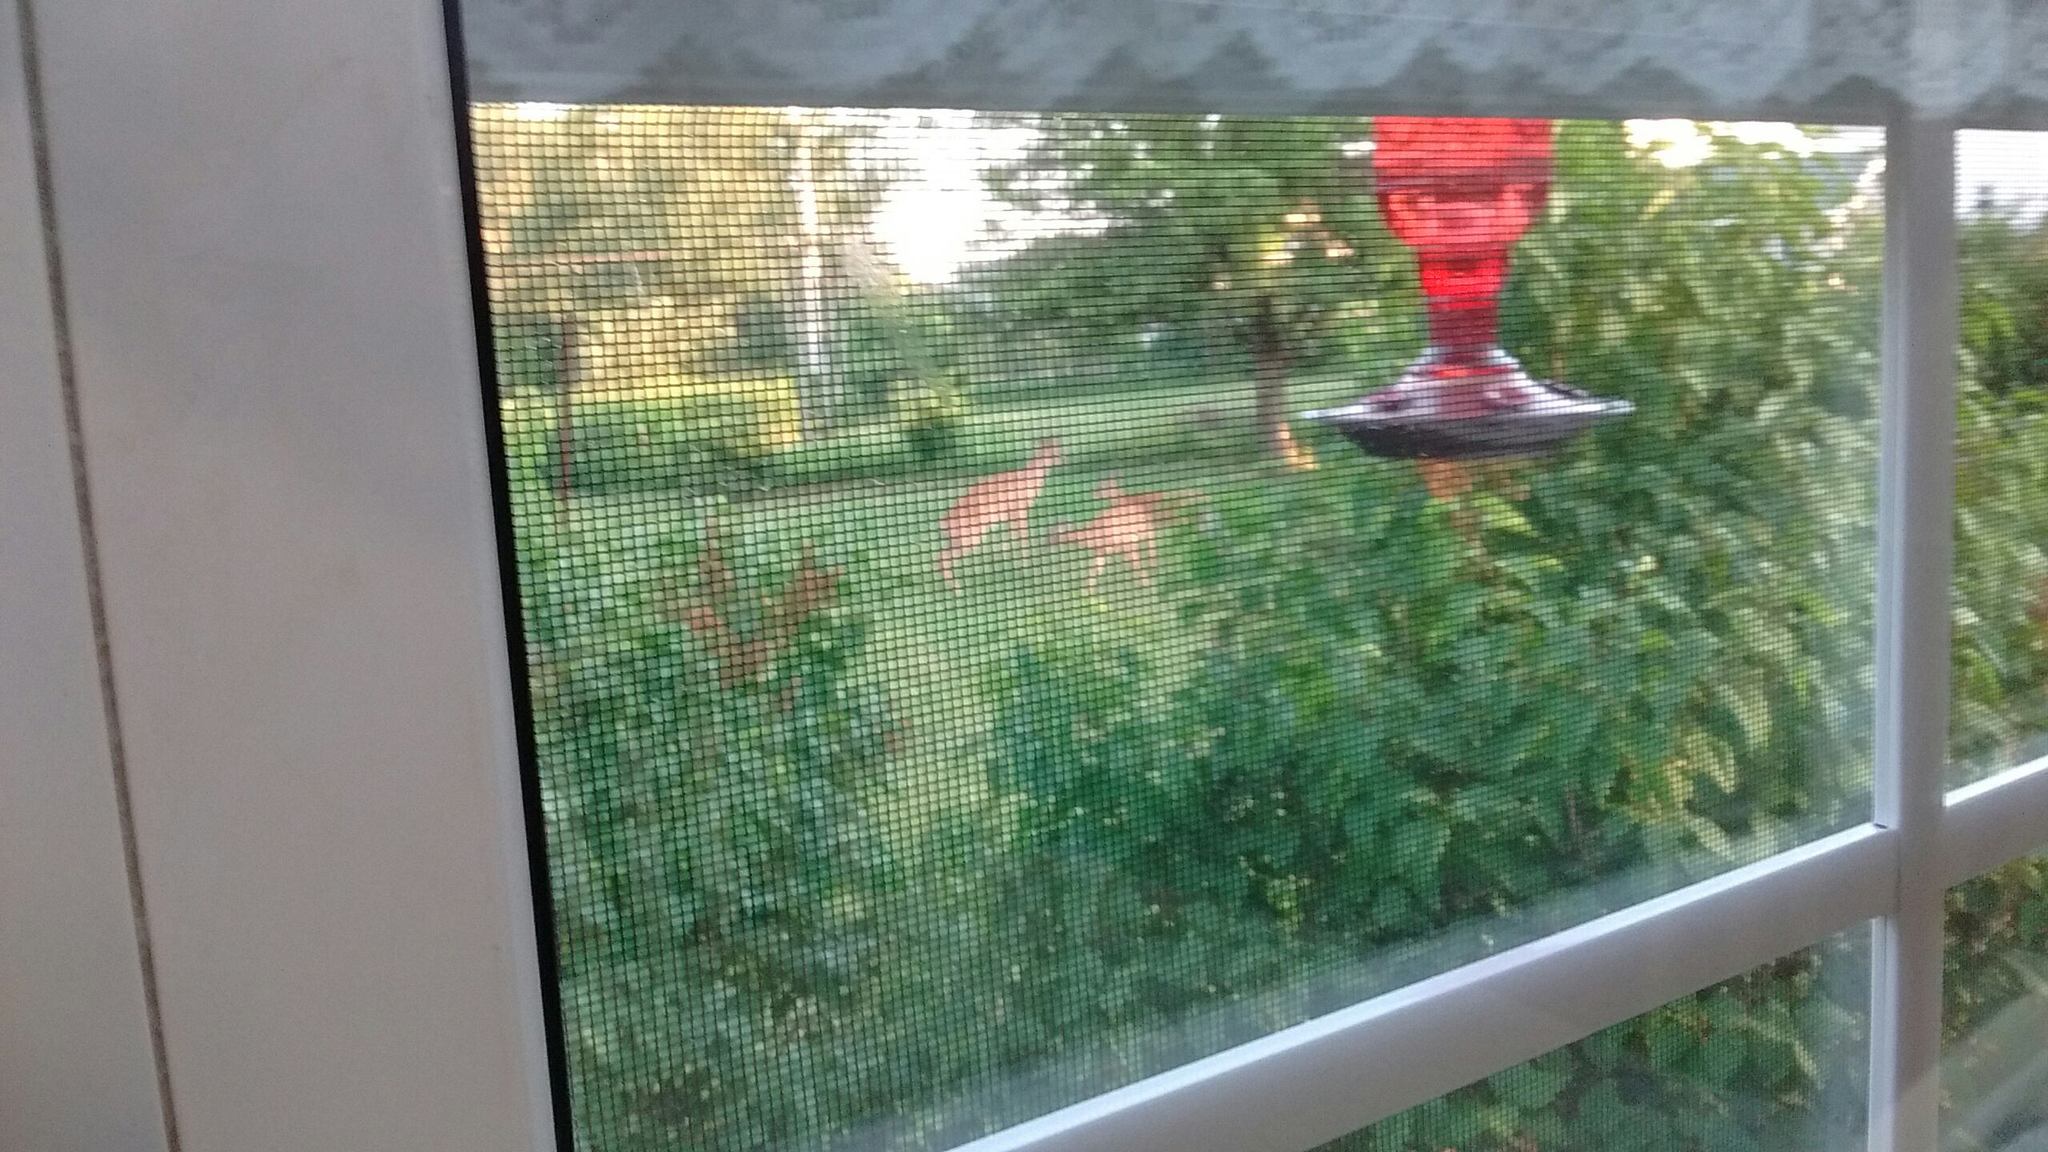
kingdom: Animalia
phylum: Chordata
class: Mammalia
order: Artiodactyla
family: Cervidae
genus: Odocoileus
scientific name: Odocoileus virginianus
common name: White-tailed deer
